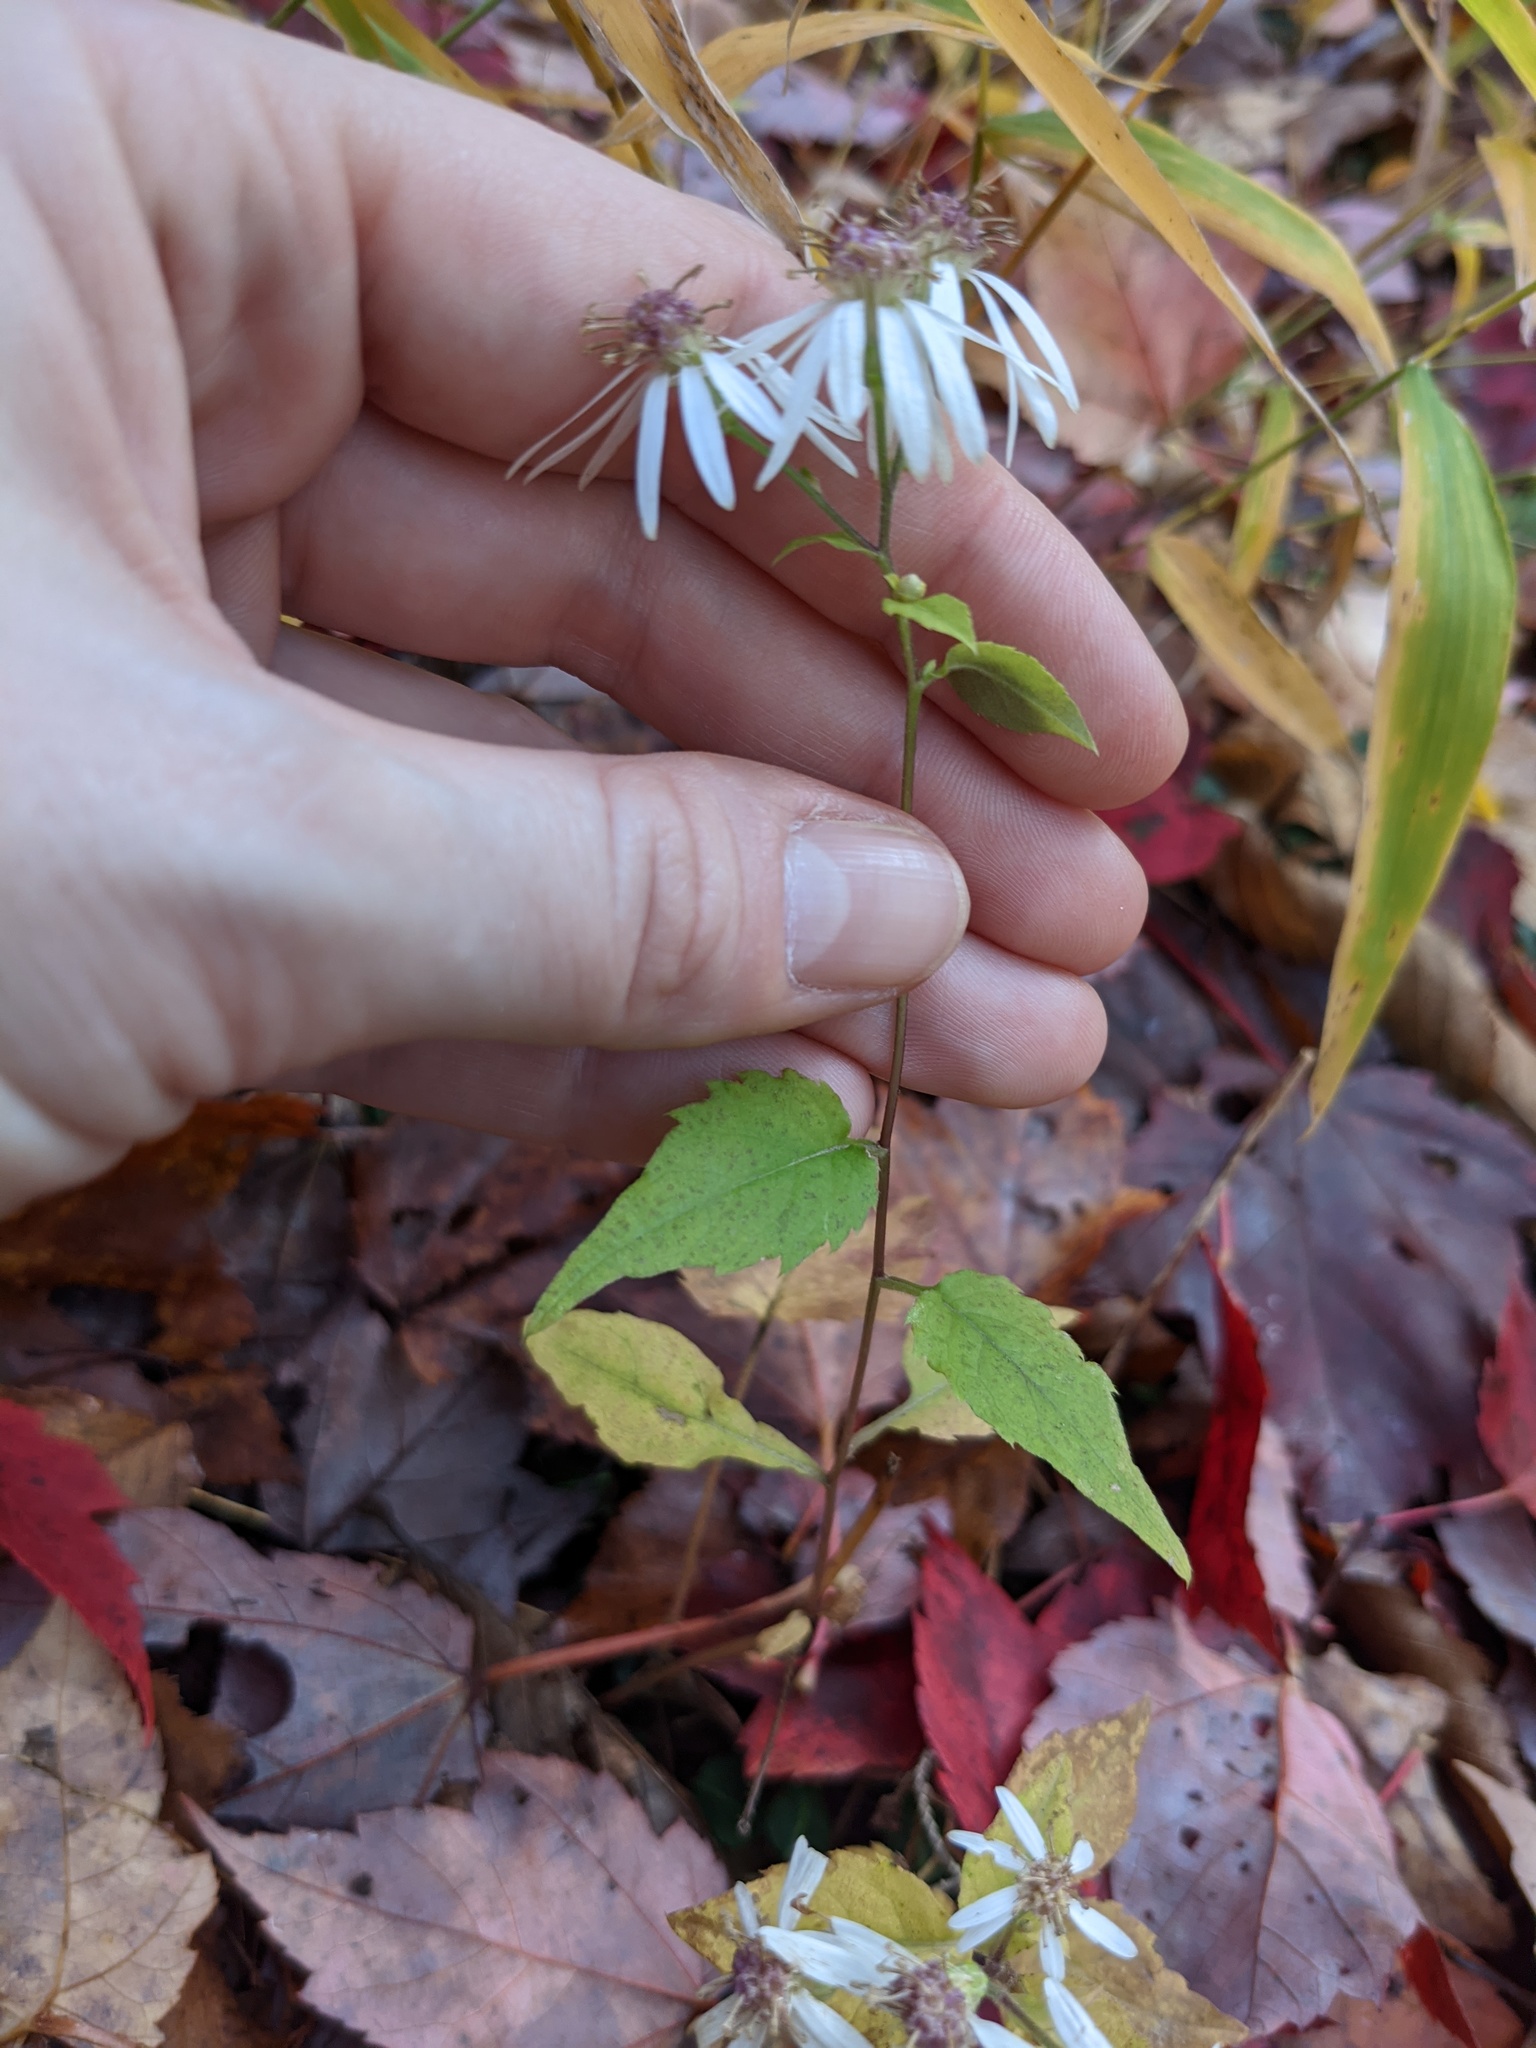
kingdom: Plantae
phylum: Tracheophyta
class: Magnoliopsida
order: Asterales
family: Asteraceae
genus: Eurybia
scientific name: Eurybia divaricata
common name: White wood aster
